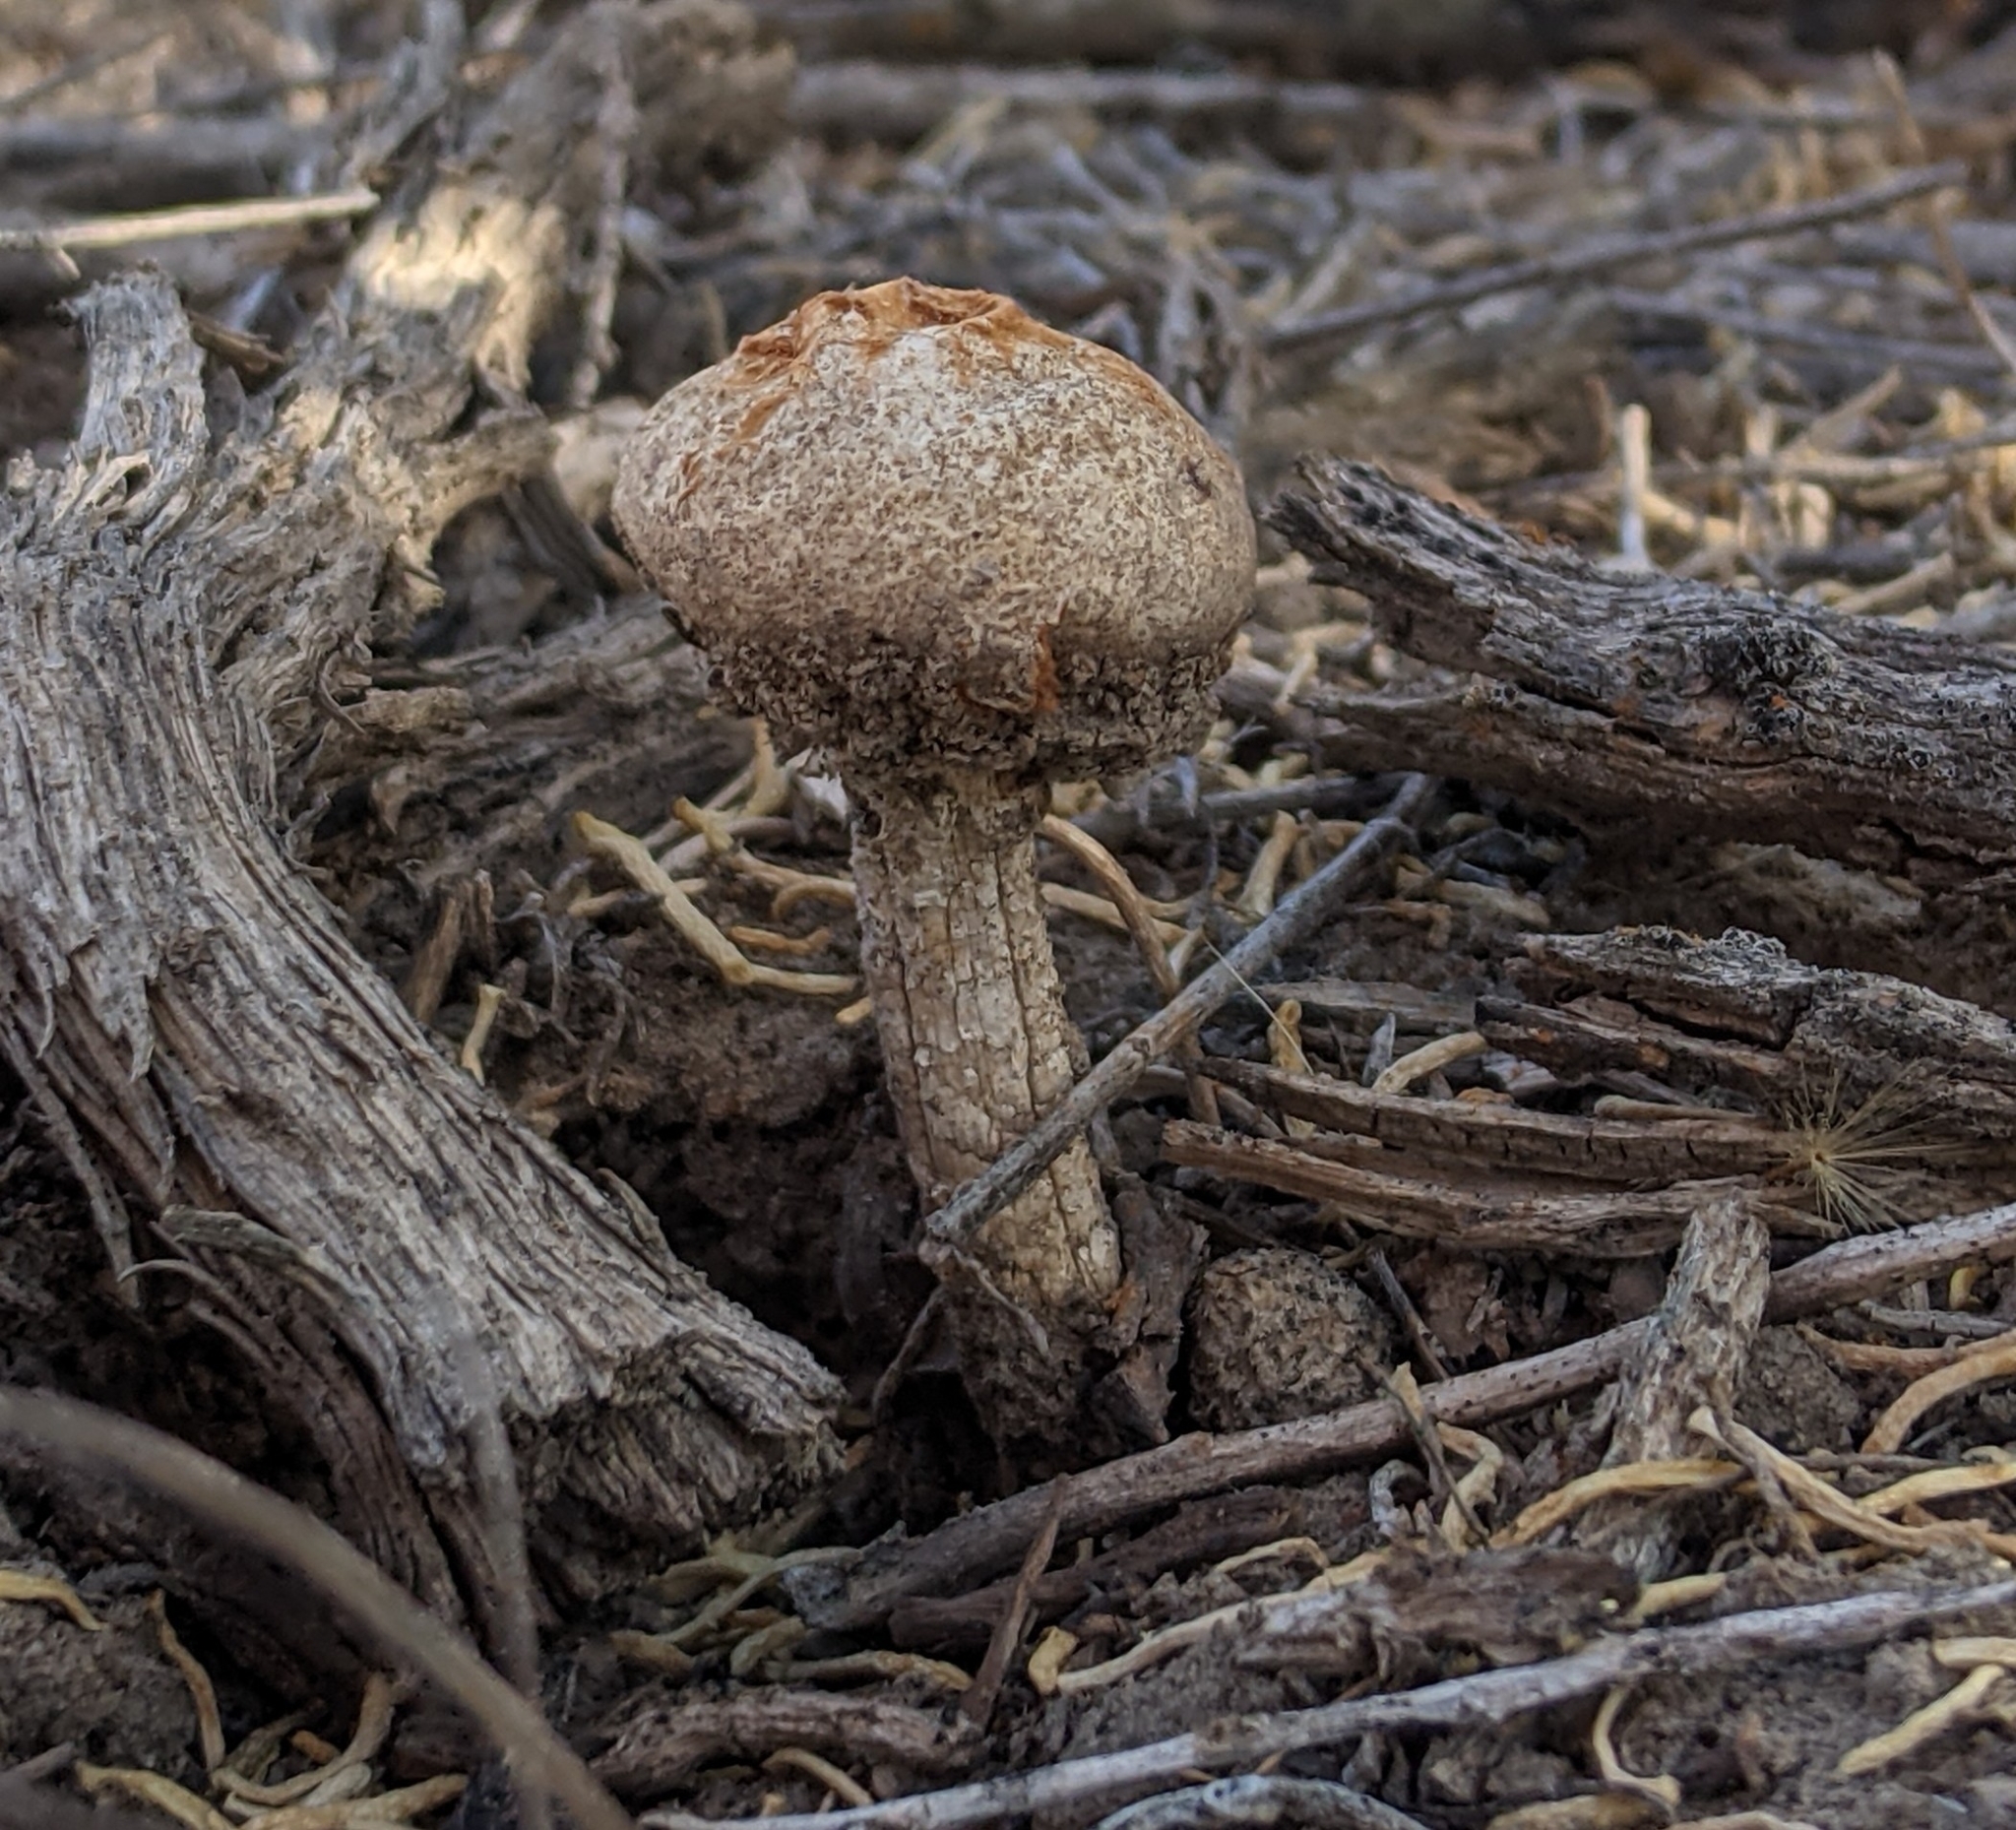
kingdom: Fungi
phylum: Basidiomycota
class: Agaricomycetes
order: Agaricales
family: Agaricaceae
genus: Battarrea
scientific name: Battarrea phalloides
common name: Sandy stiltball
